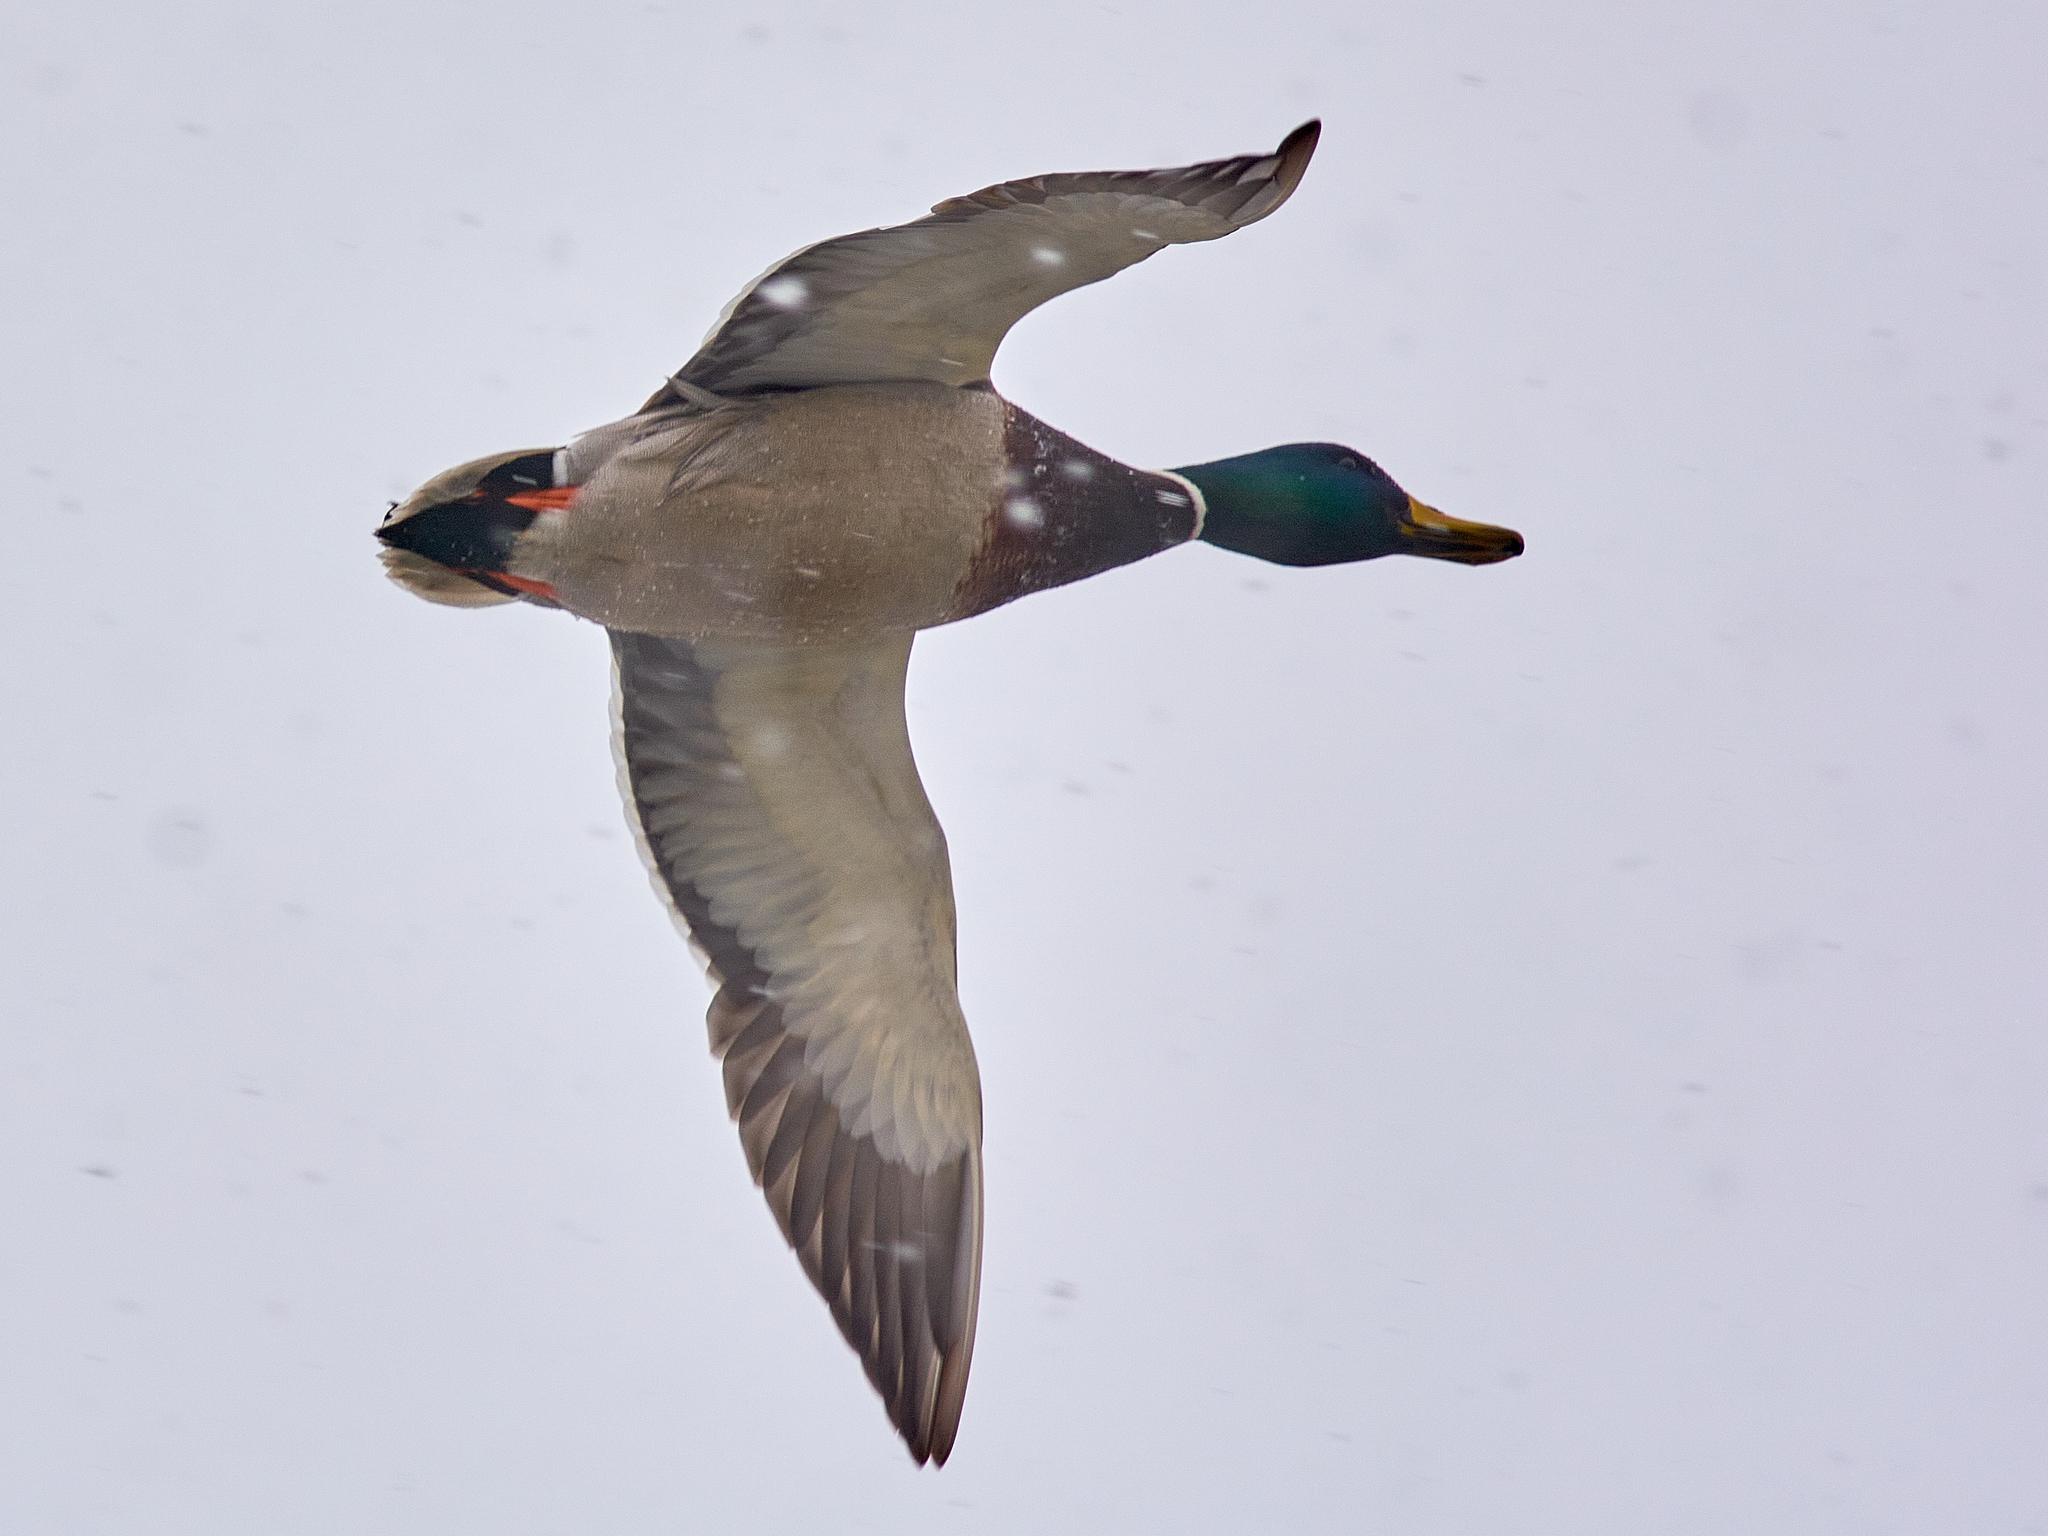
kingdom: Animalia
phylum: Chordata
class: Aves
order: Anseriformes
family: Anatidae
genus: Anas
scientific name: Anas platyrhynchos
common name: Mallard
